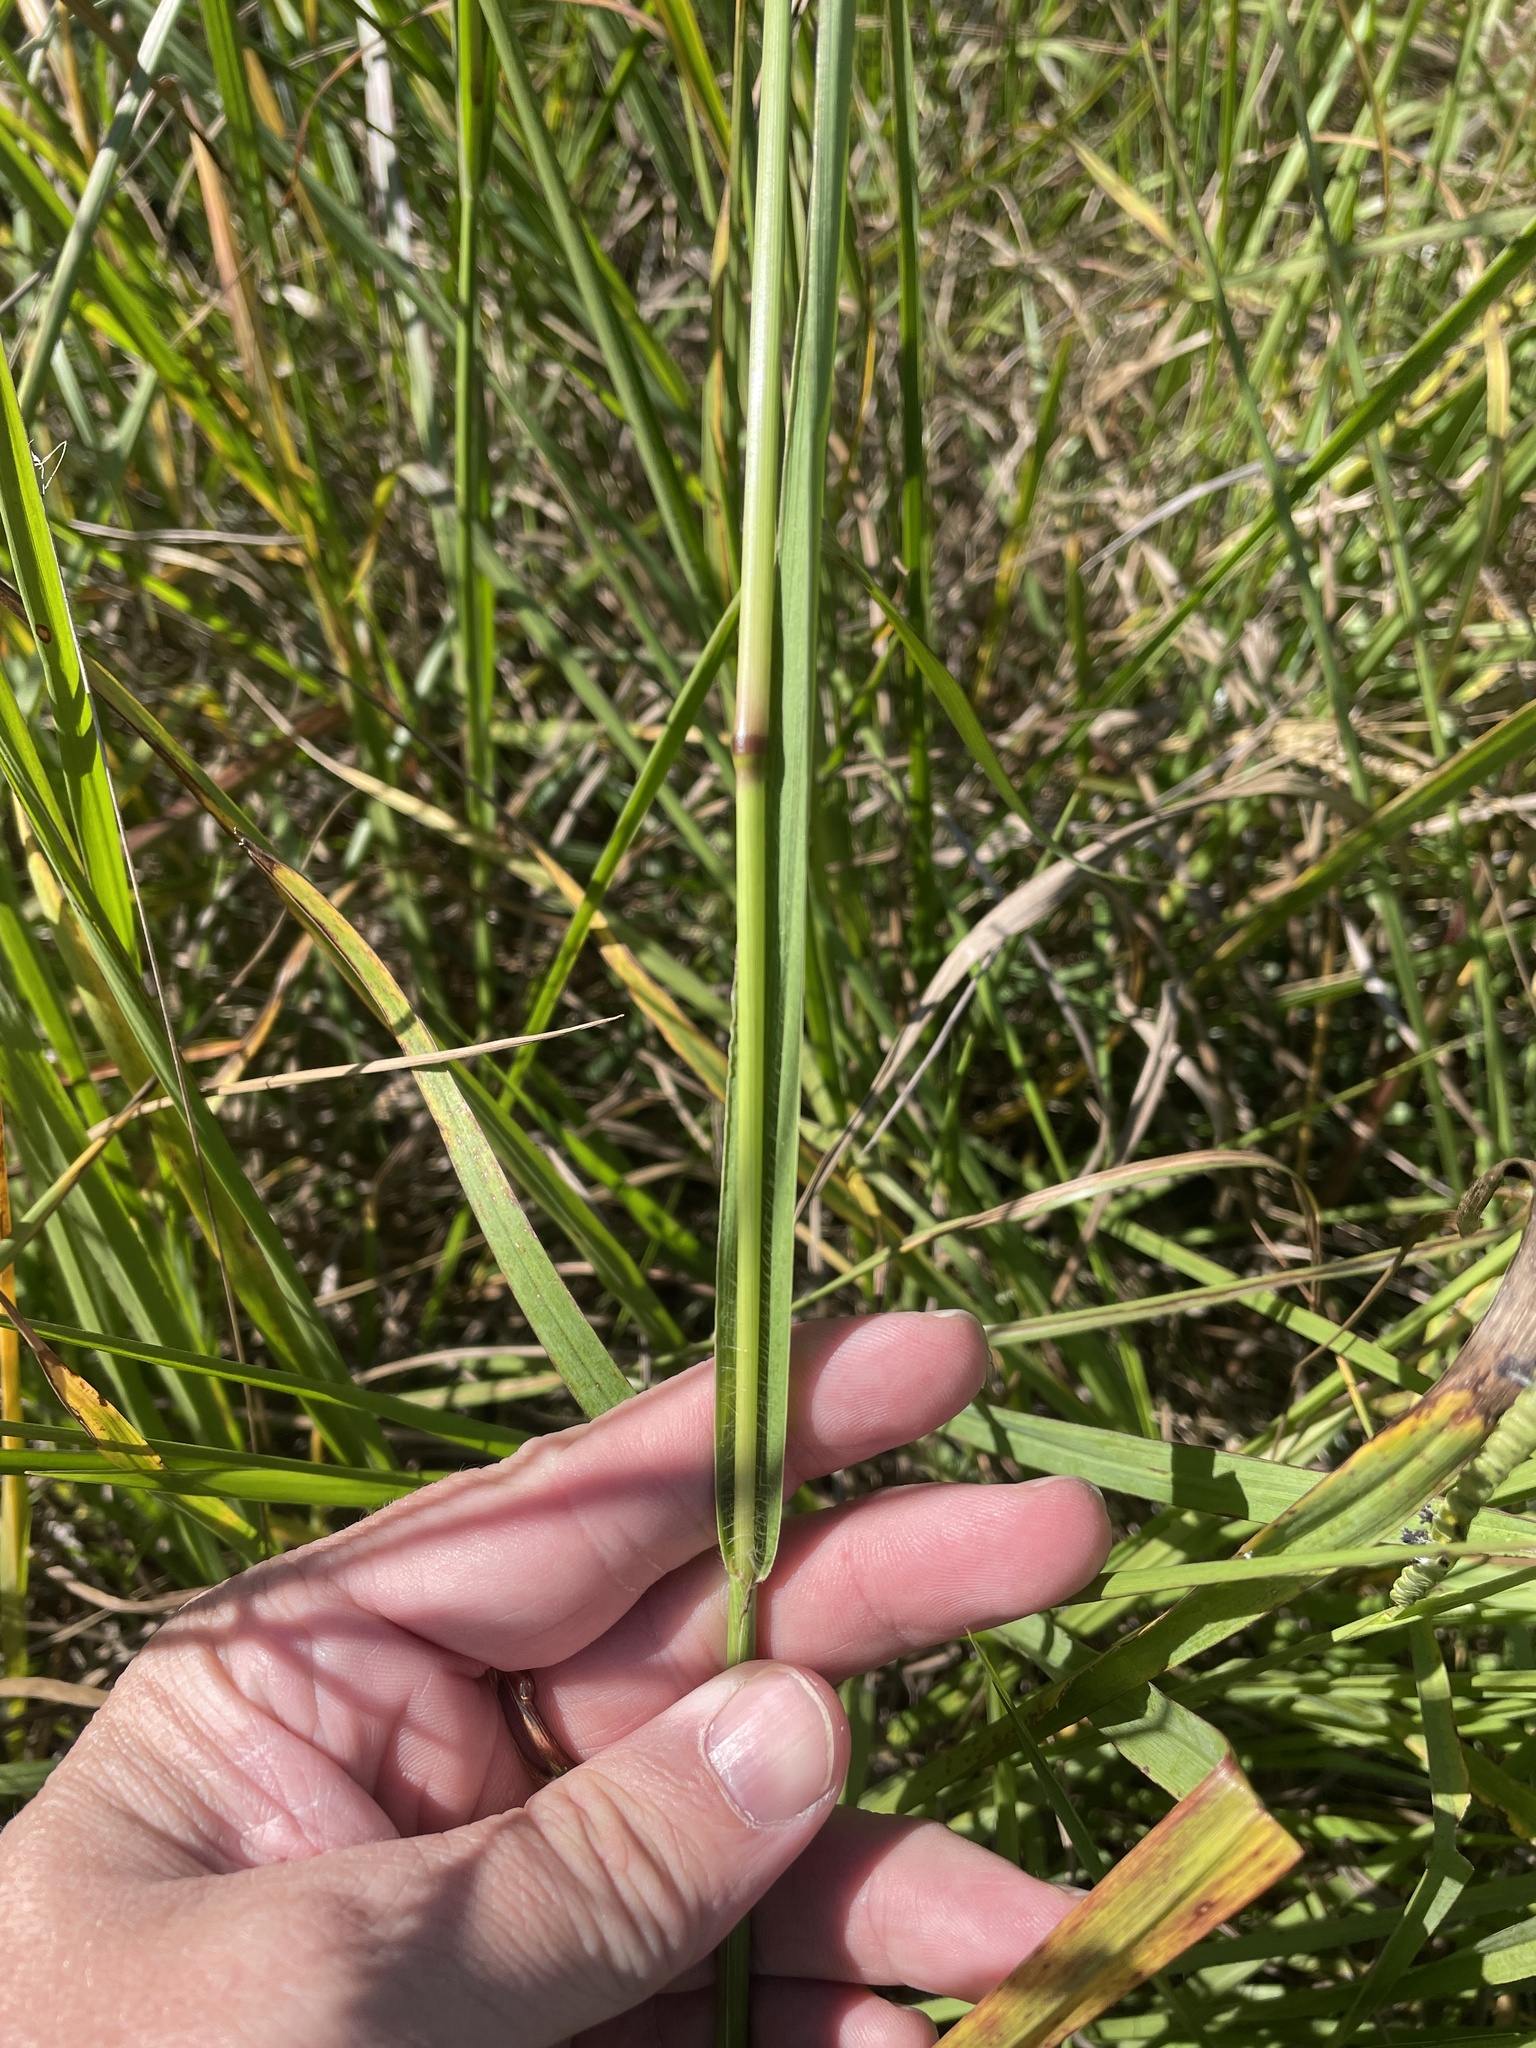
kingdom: Plantae
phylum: Tracheophyta
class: Liliopsida
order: Poales
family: Poaceae
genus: Paspalum
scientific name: Paspalum floridanum
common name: Florida paspalum
